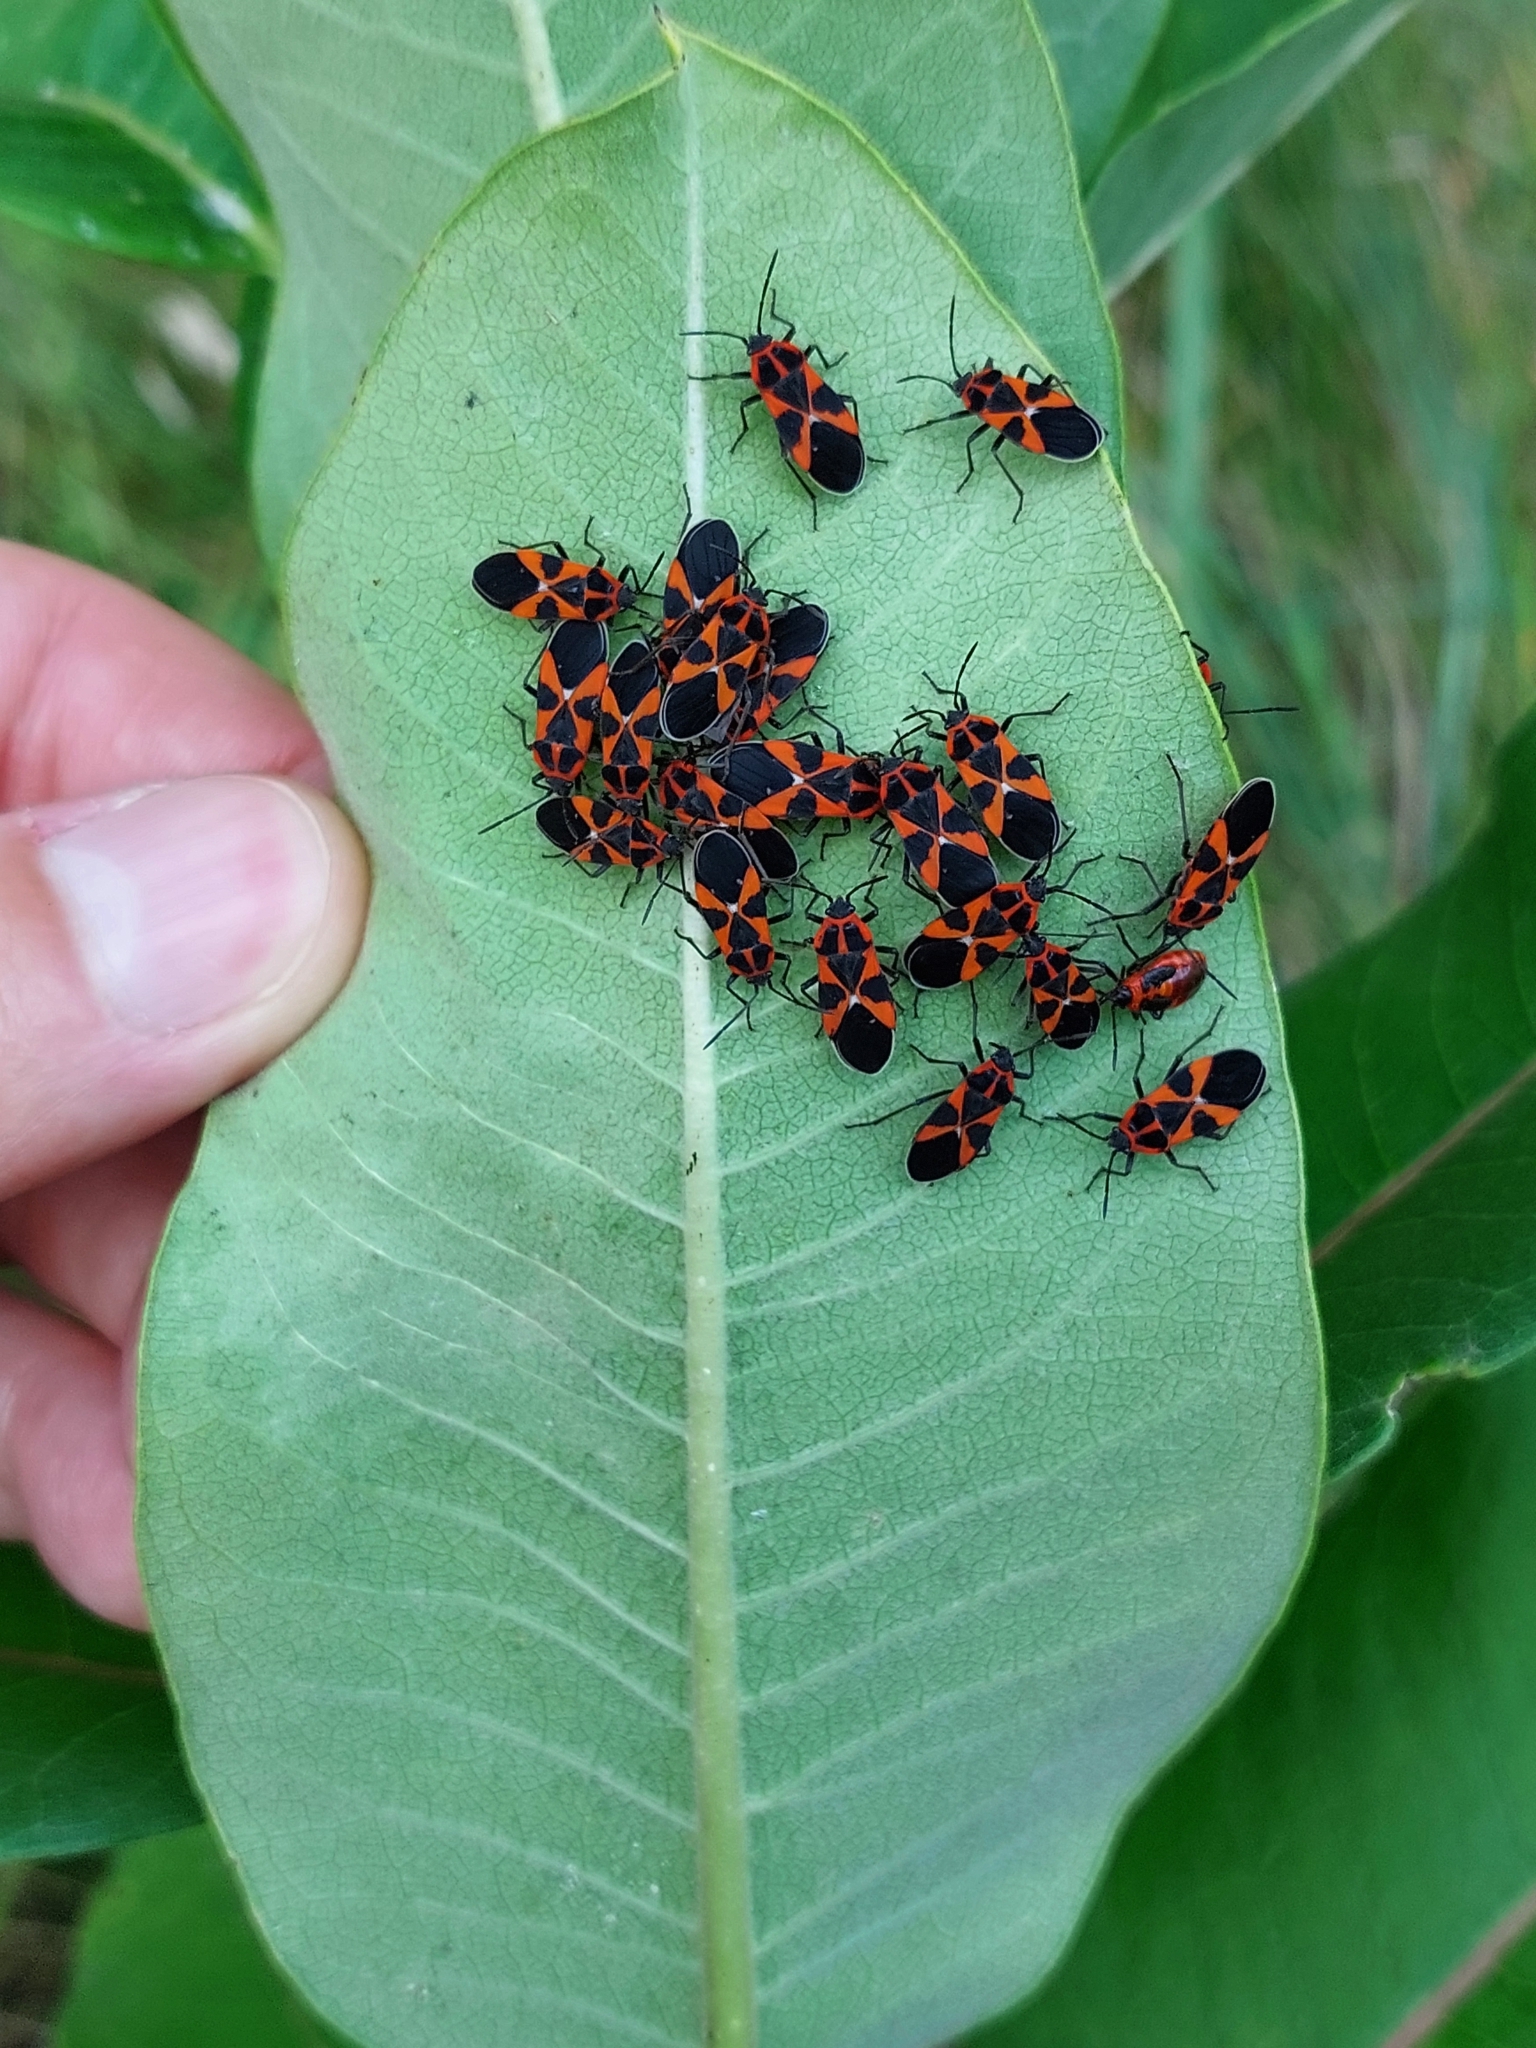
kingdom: Animalia
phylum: Arthropoda
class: Insecta
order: Hemiptera
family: Lygaeidae
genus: Tropidothorax
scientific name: Tropidothorax leucopterus
